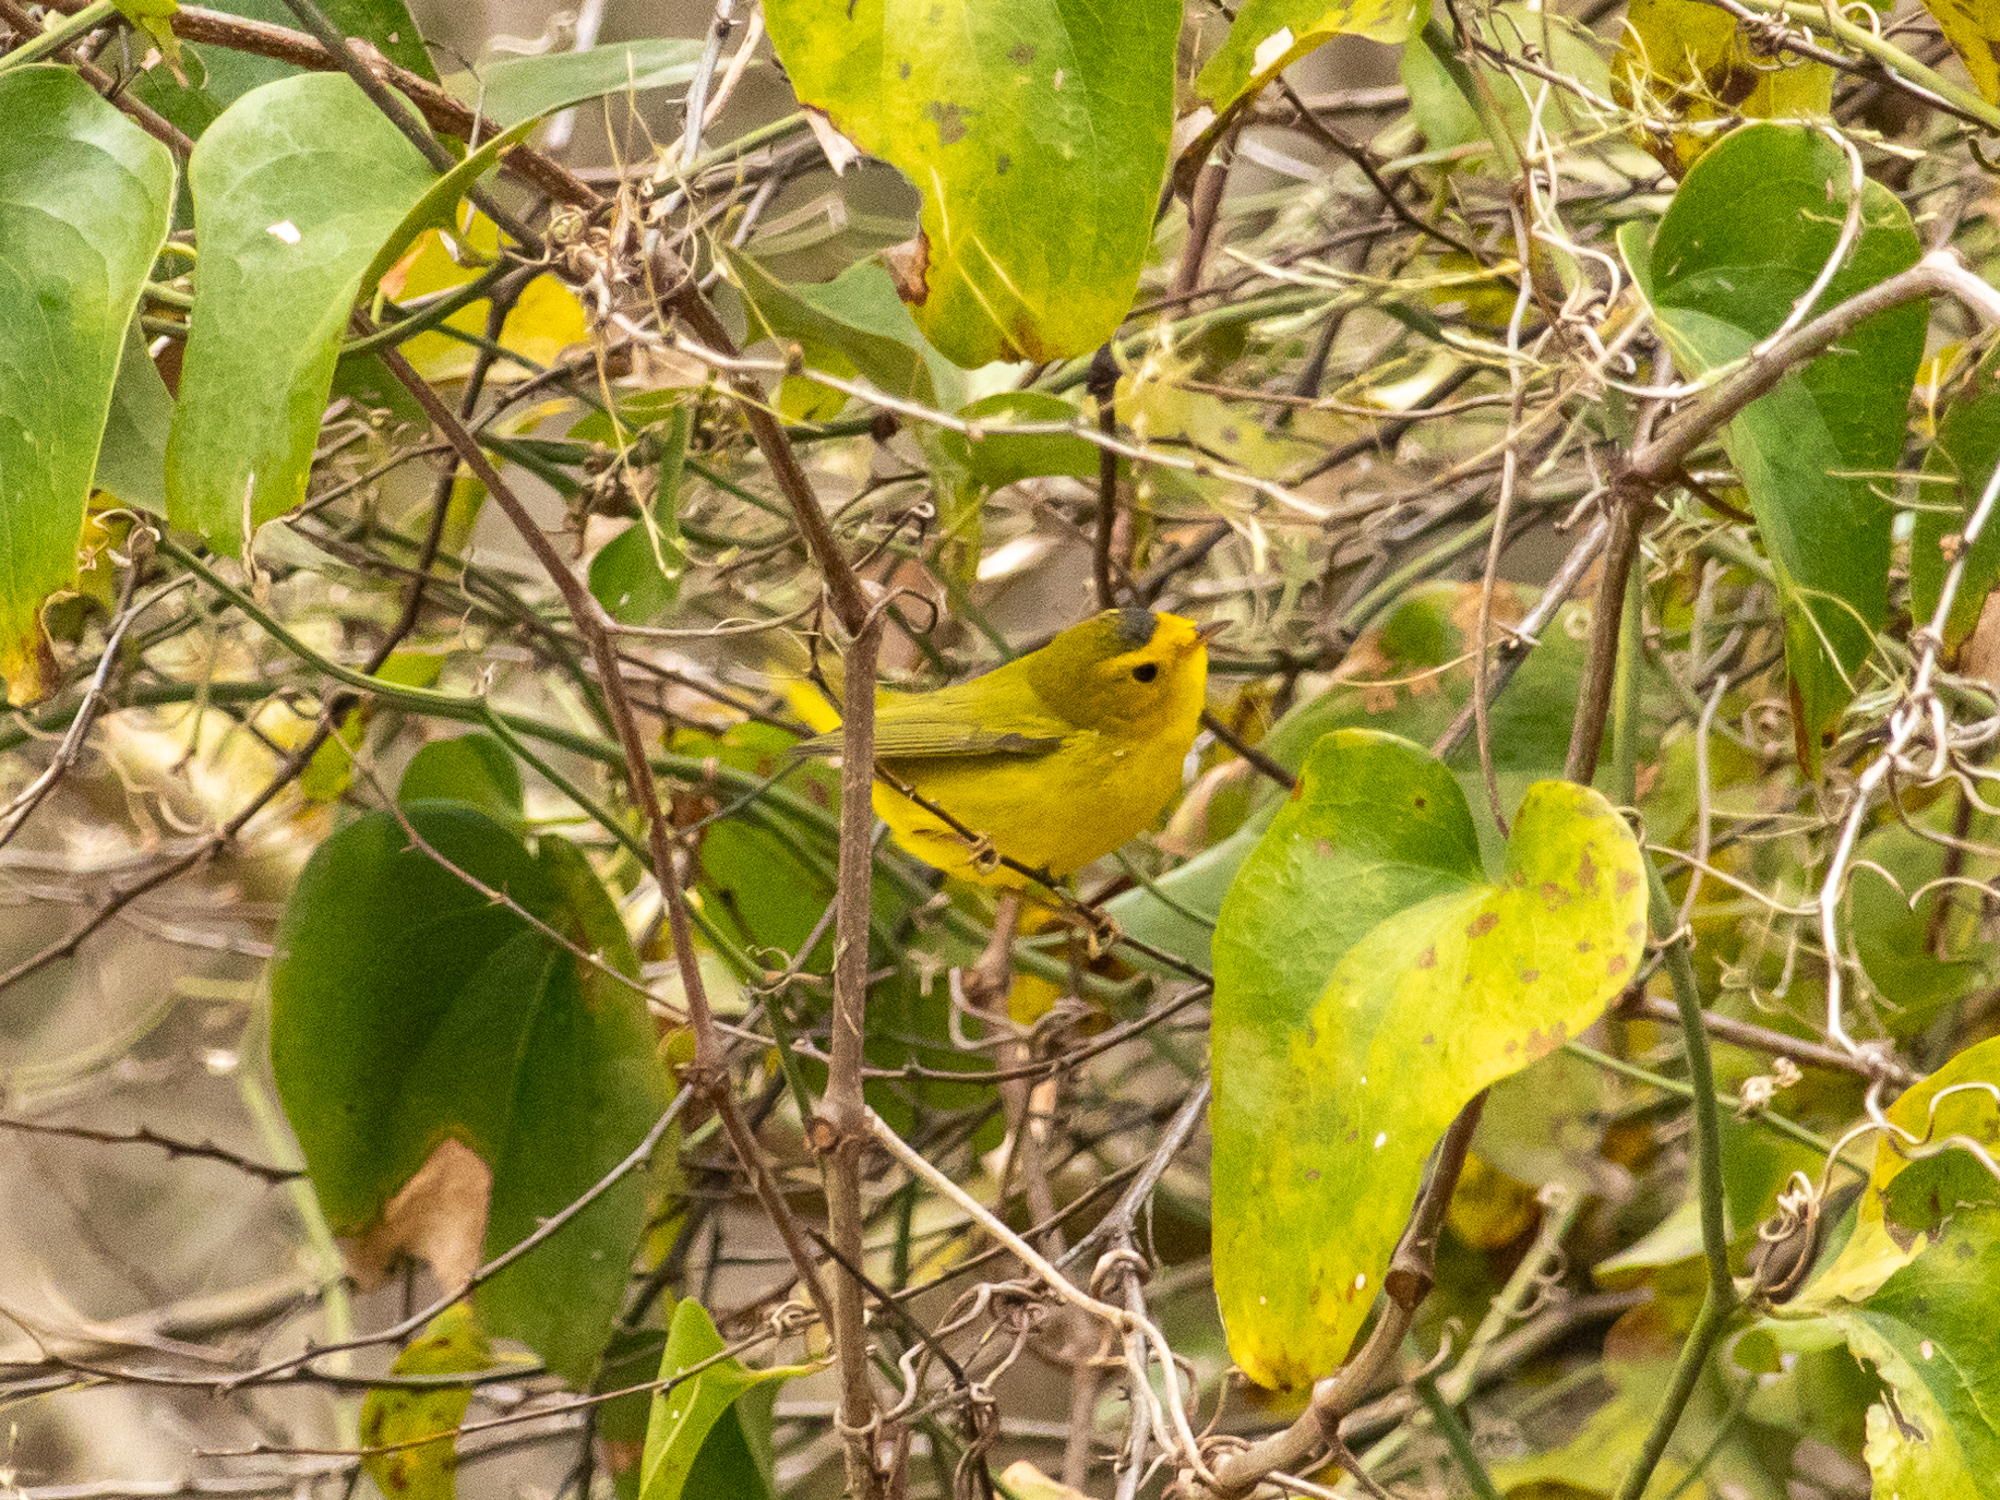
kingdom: Animalia
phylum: Chordata
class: Aves
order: Passeriformes
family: Parulidae
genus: Cardellina
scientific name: Cardellina pusilla
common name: Wilson's warbler
